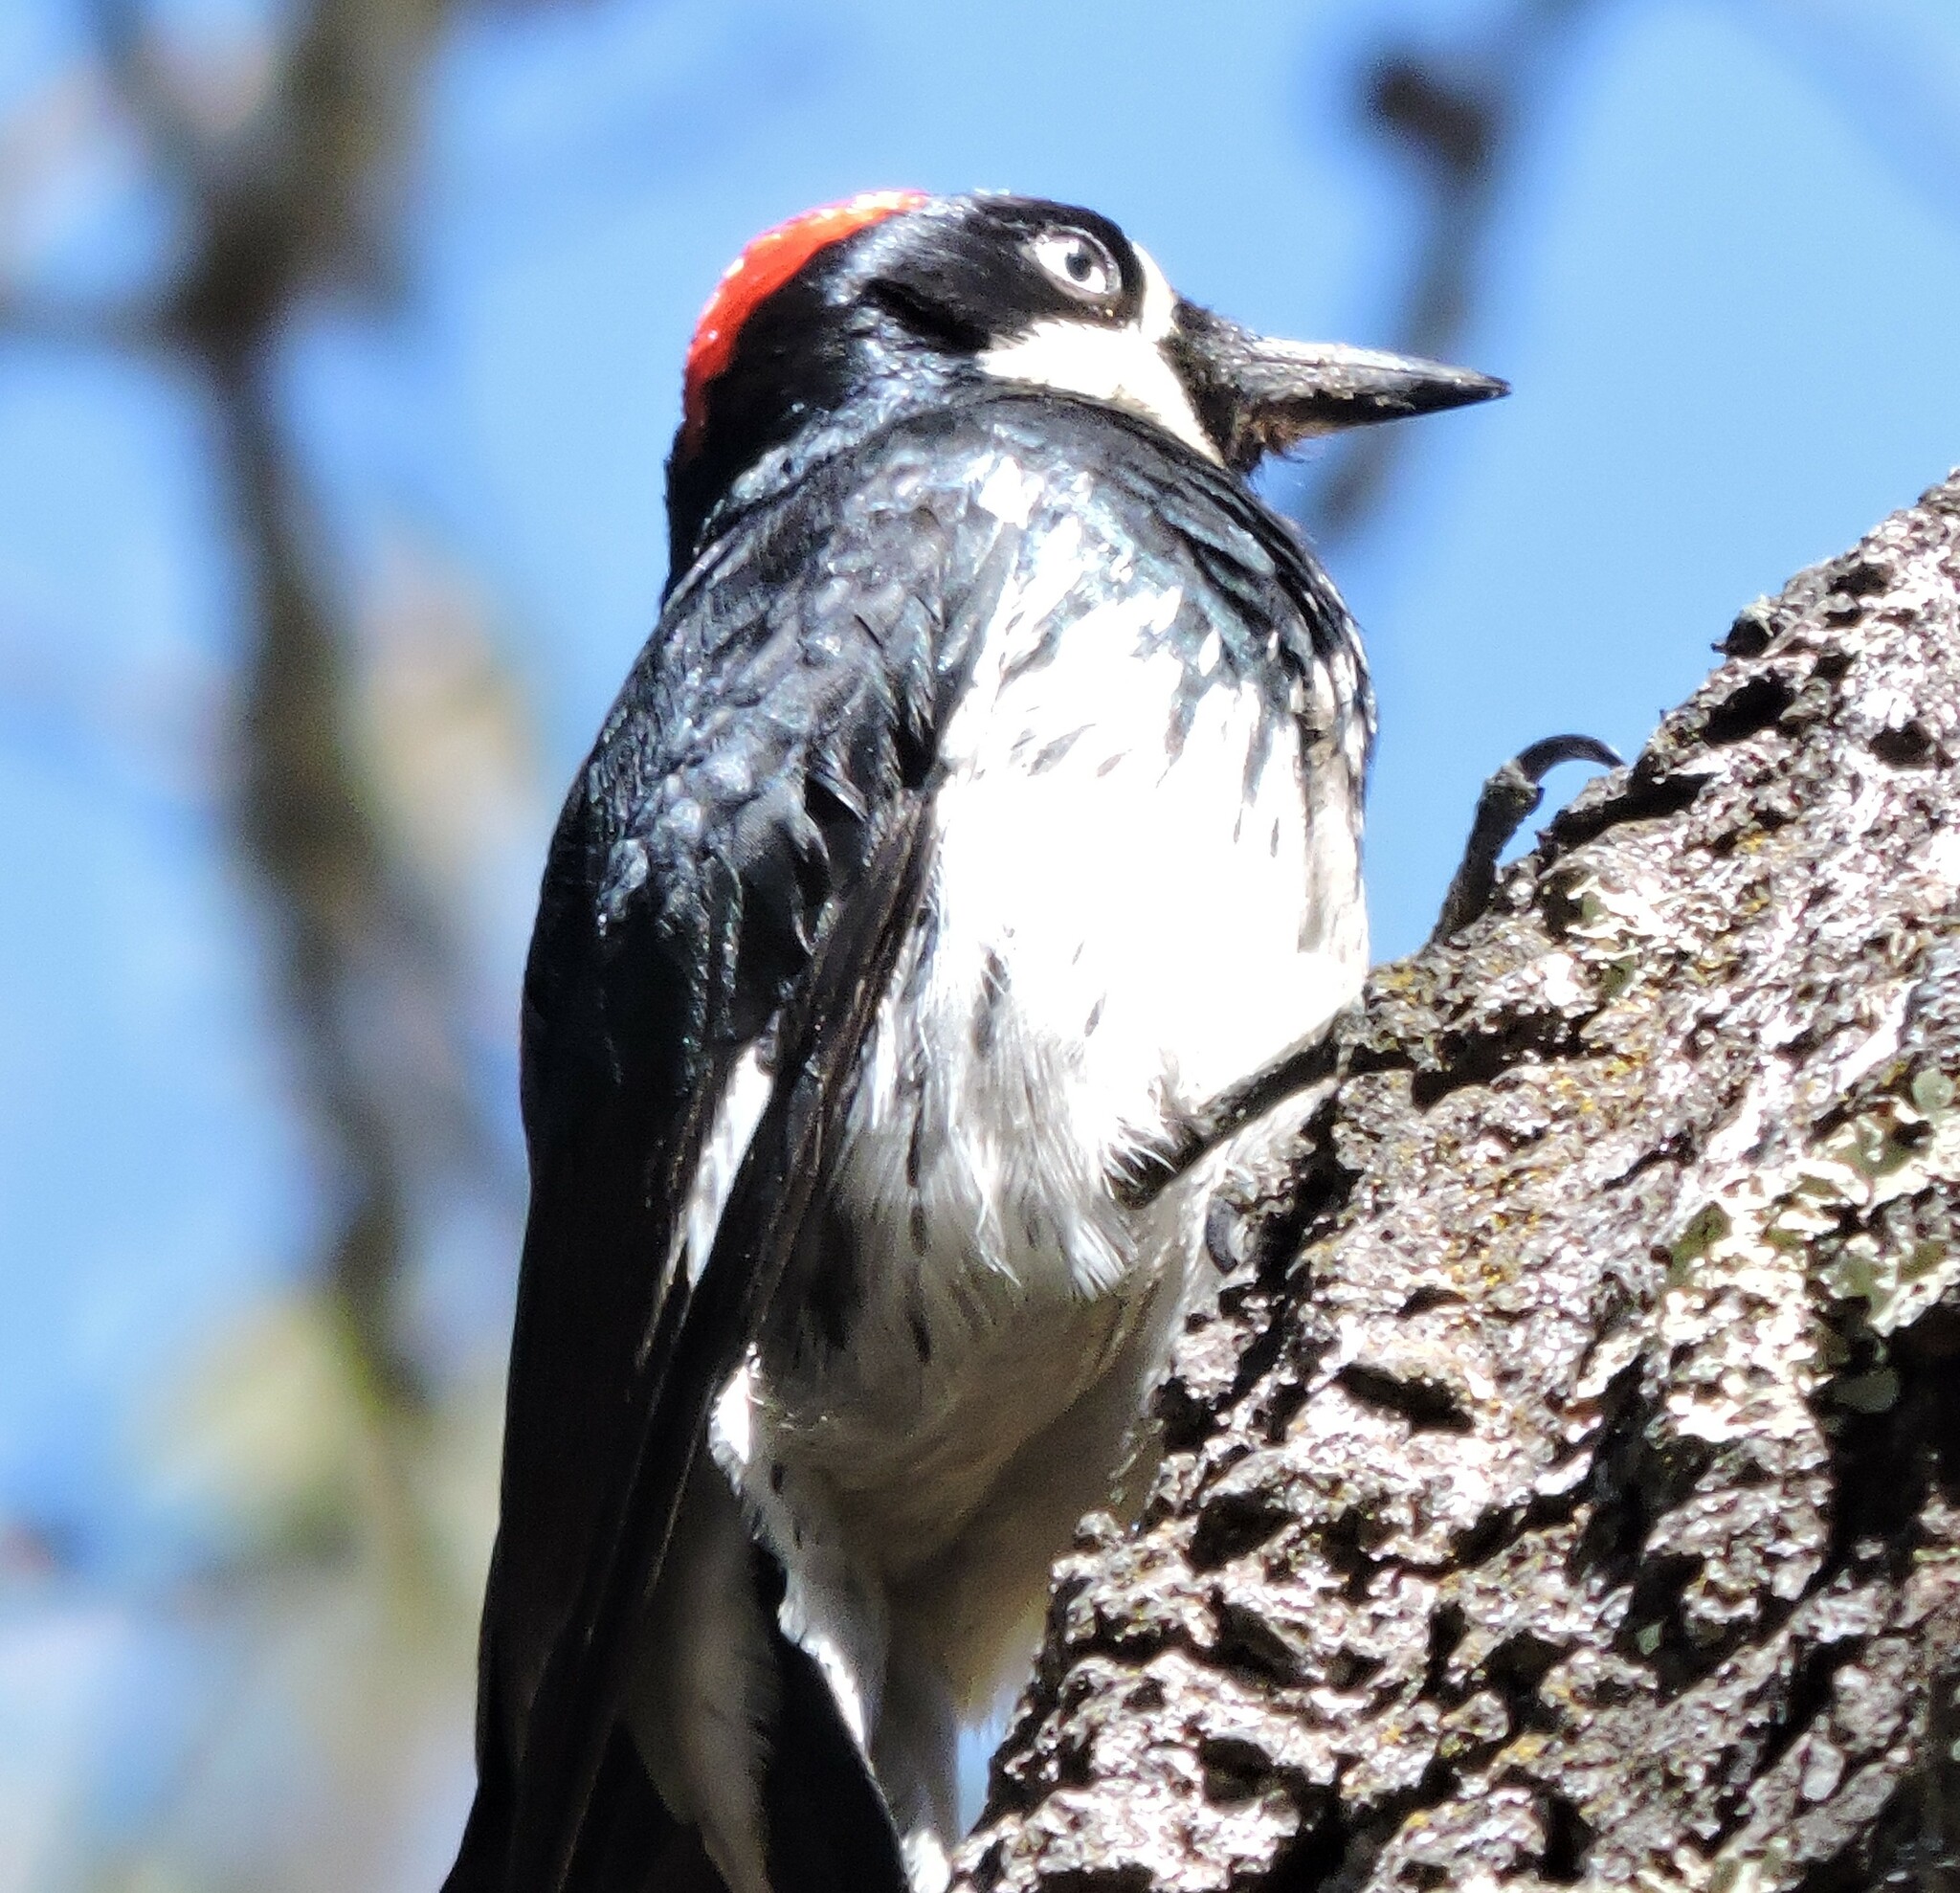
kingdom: Animalia
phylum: Chordata
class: Aves
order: Piciformes
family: Picidae
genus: Melanerpes
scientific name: Melanerpes formicivorus
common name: Acorn woodpecker
